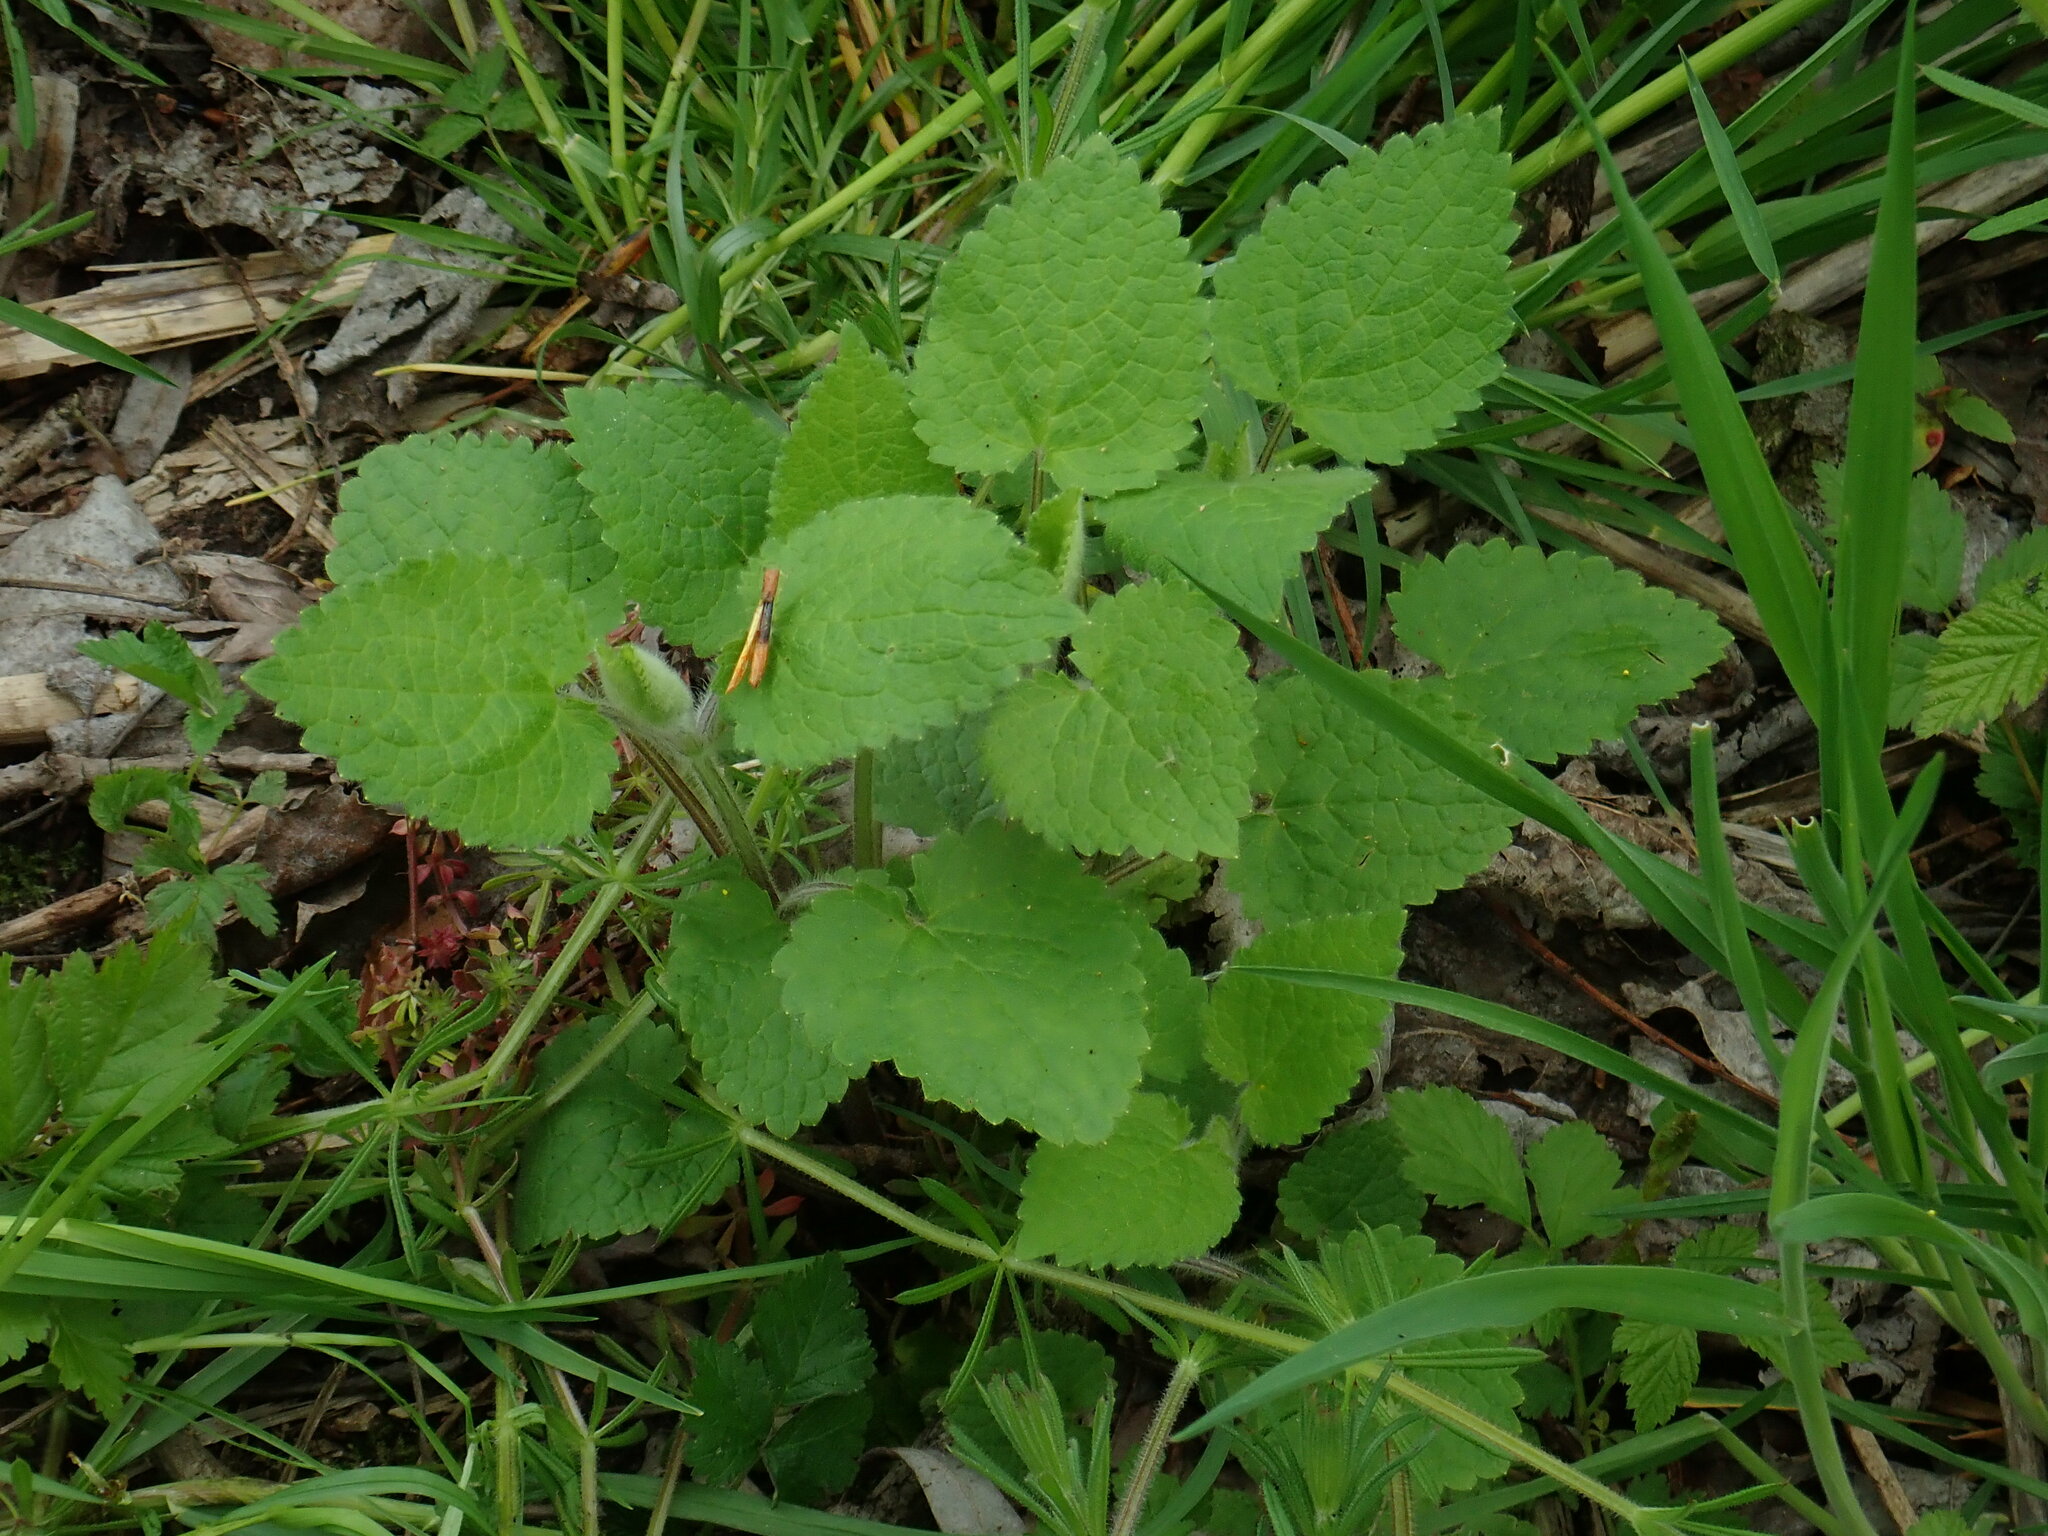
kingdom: Plantae
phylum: Tracheophyta
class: Magnoliopsida
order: Lamiales
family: Lamiaceae
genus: Stachys
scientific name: Stachys sylvatica
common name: Hedge woundwort
